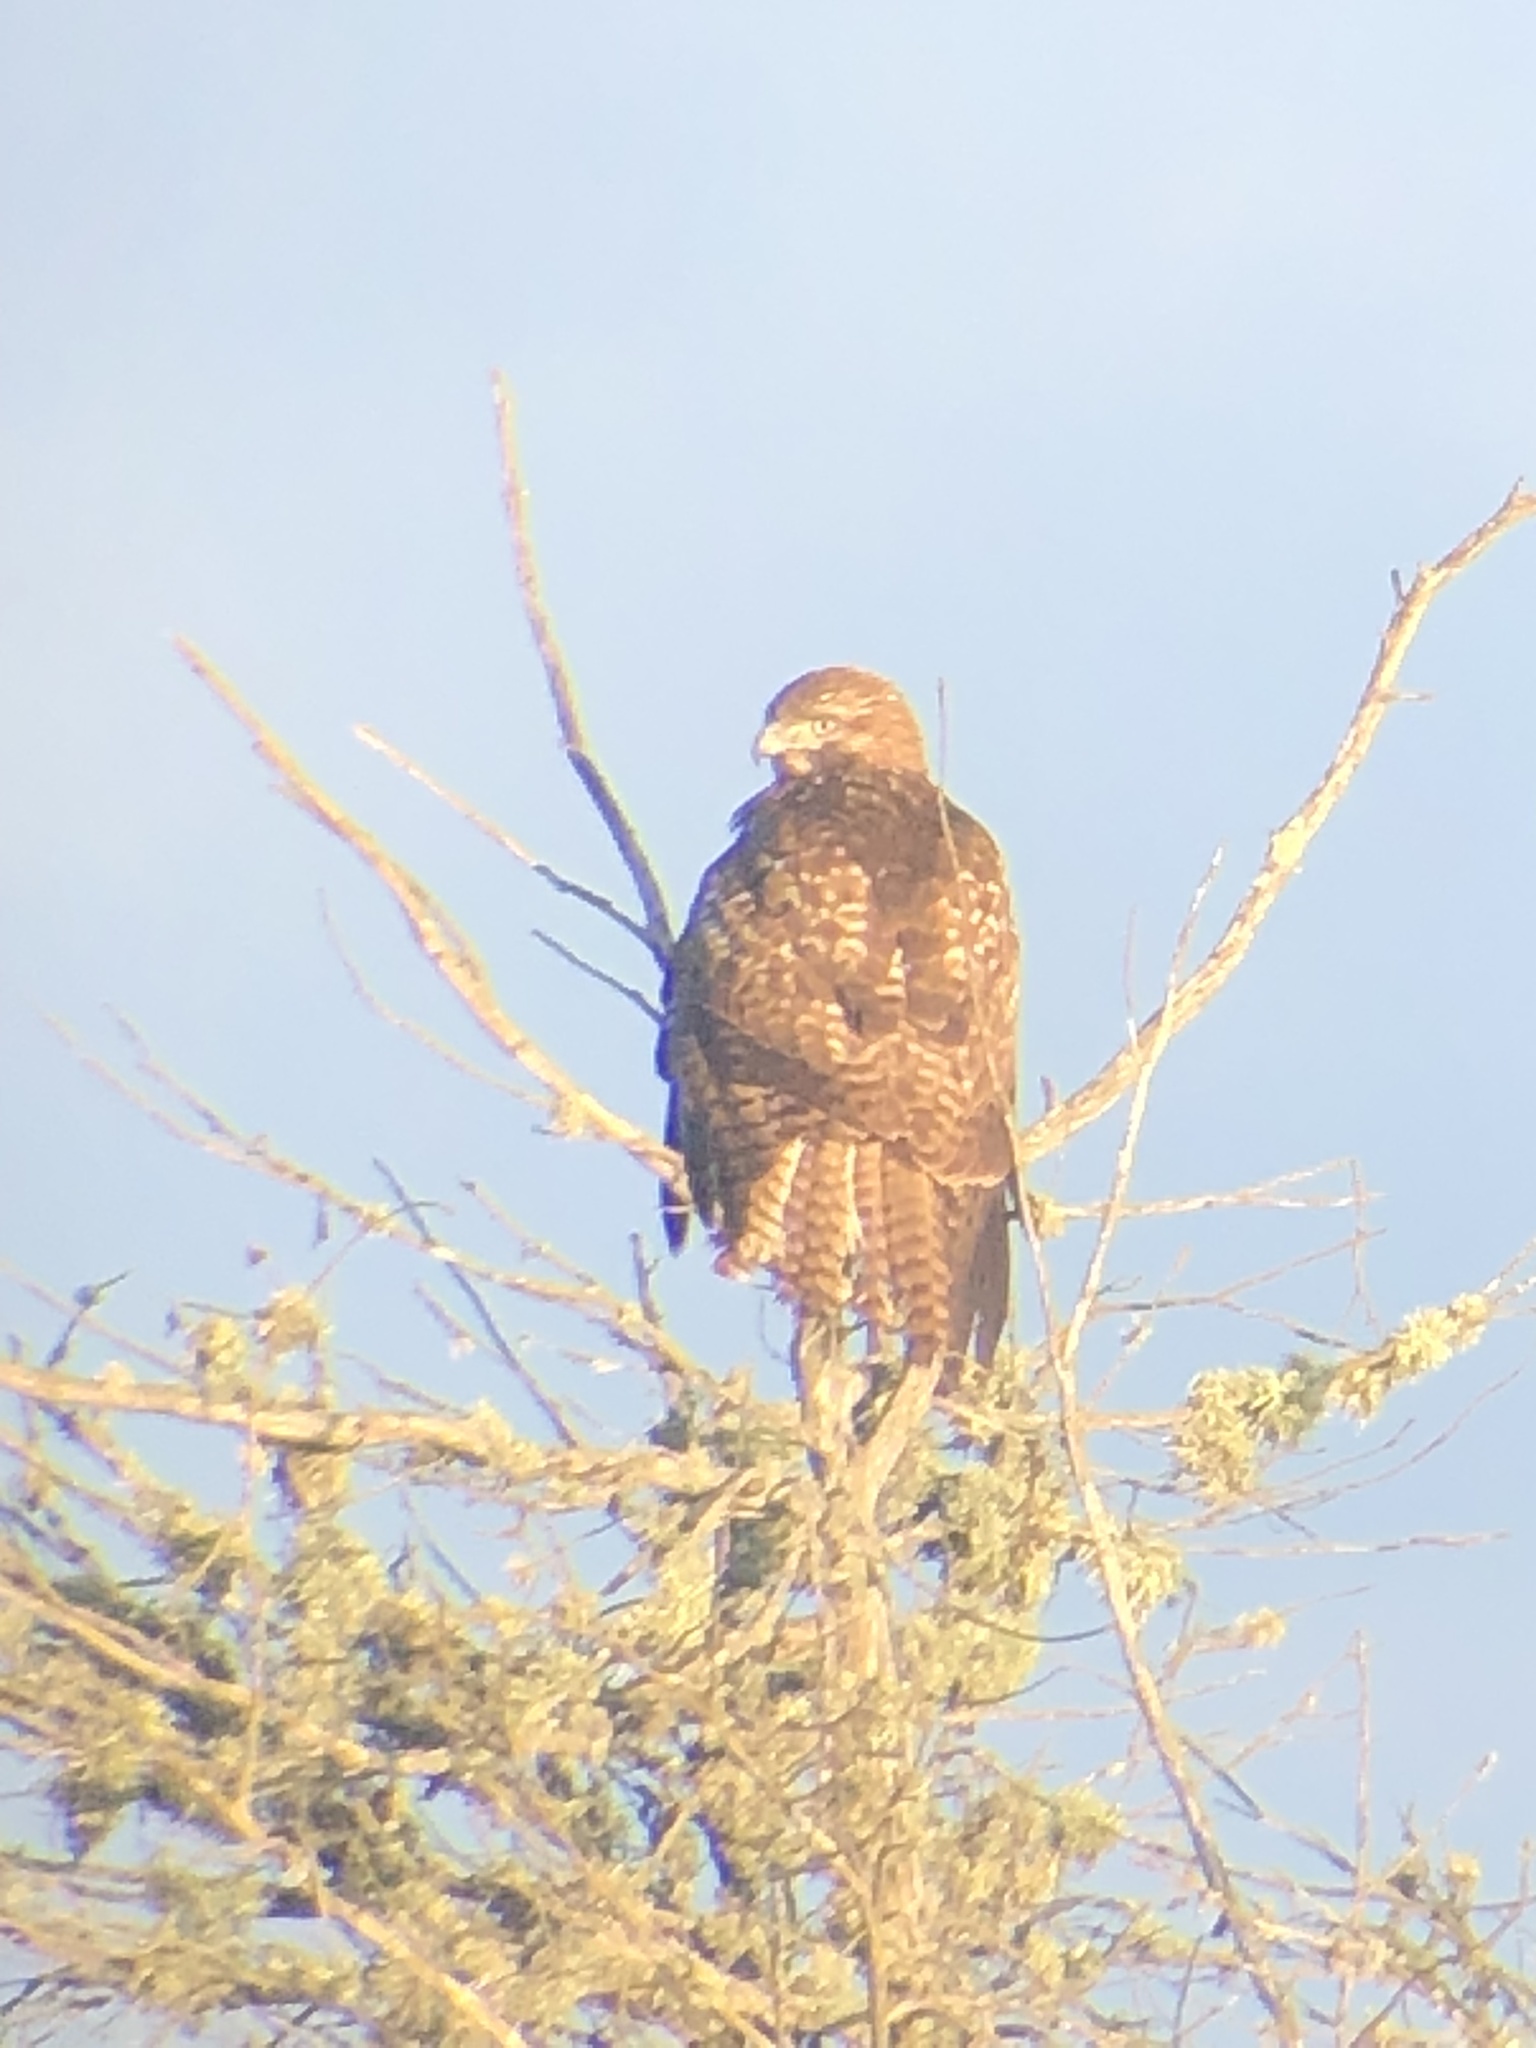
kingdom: Animalia
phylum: Chordata
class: Aves
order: Accipitriformes
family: Accipitridae
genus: Buteo
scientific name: Buteo jamaicensis
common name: Red-tailed hawk
